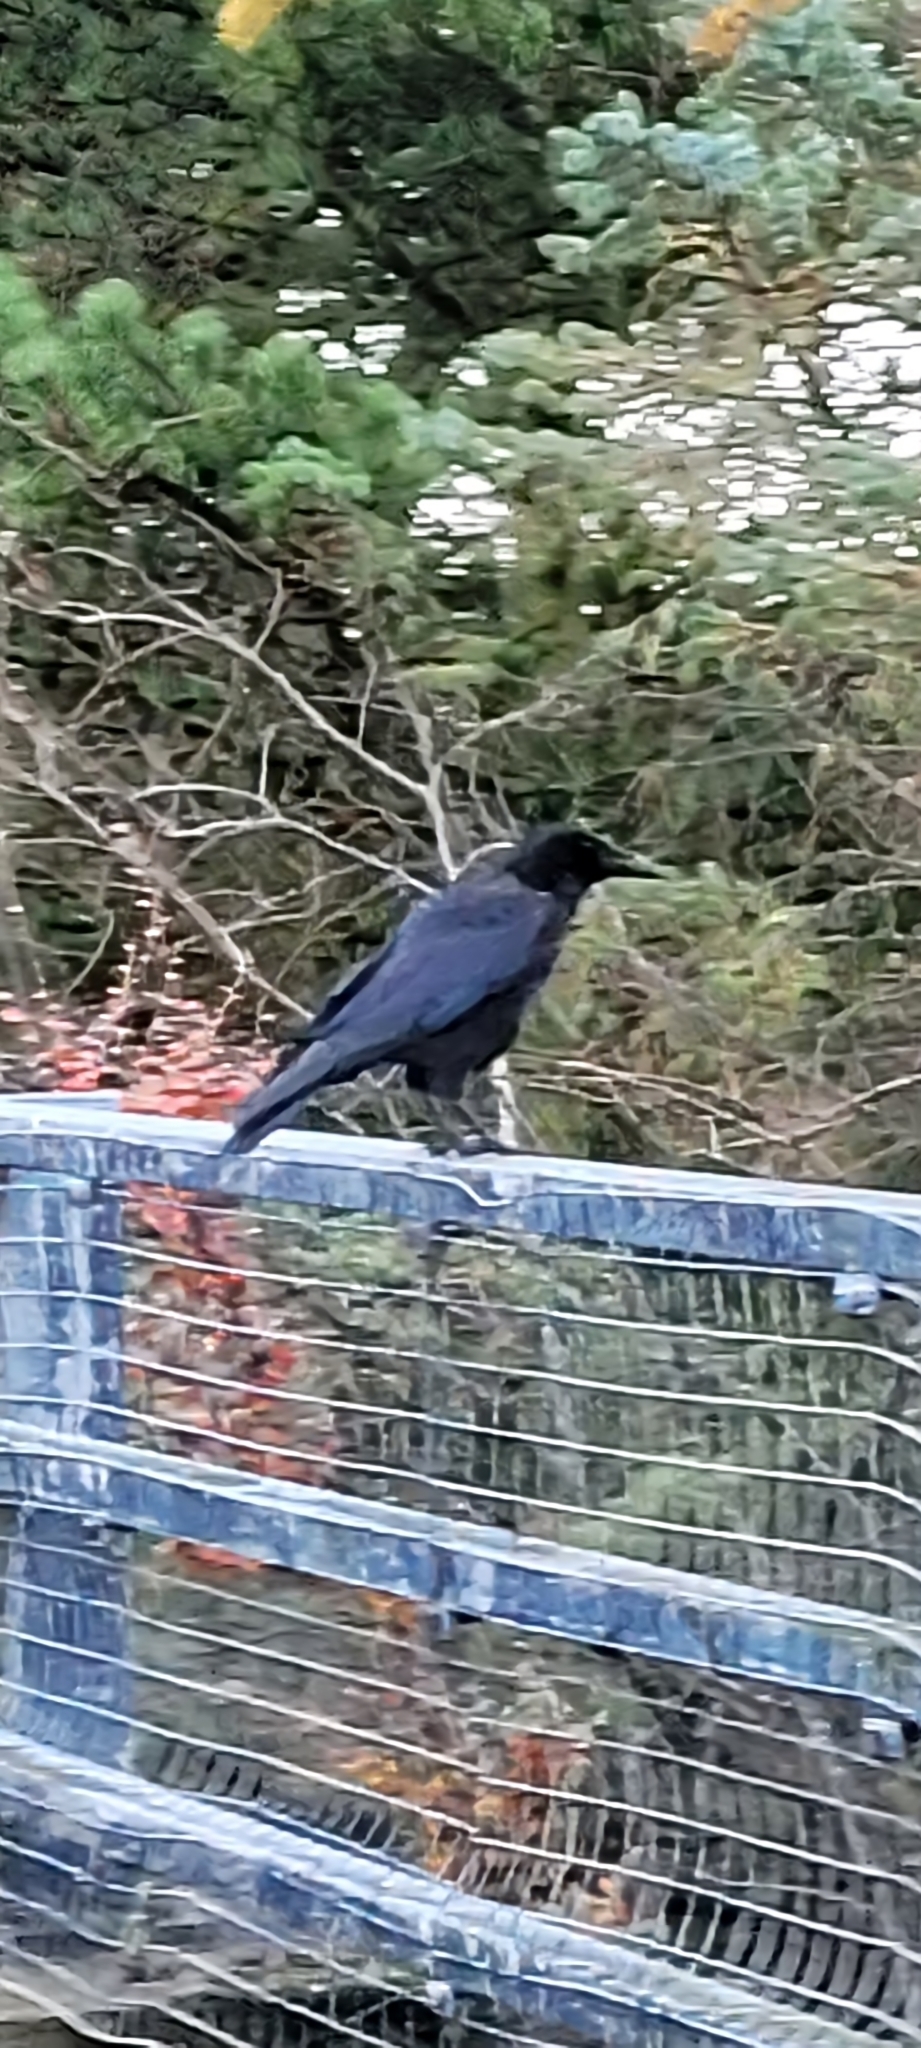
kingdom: Animalia
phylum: Chordata
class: Aves
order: Passeriformes
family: Corvidae
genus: Corvus
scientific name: Corvus corone
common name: Carrion crow
